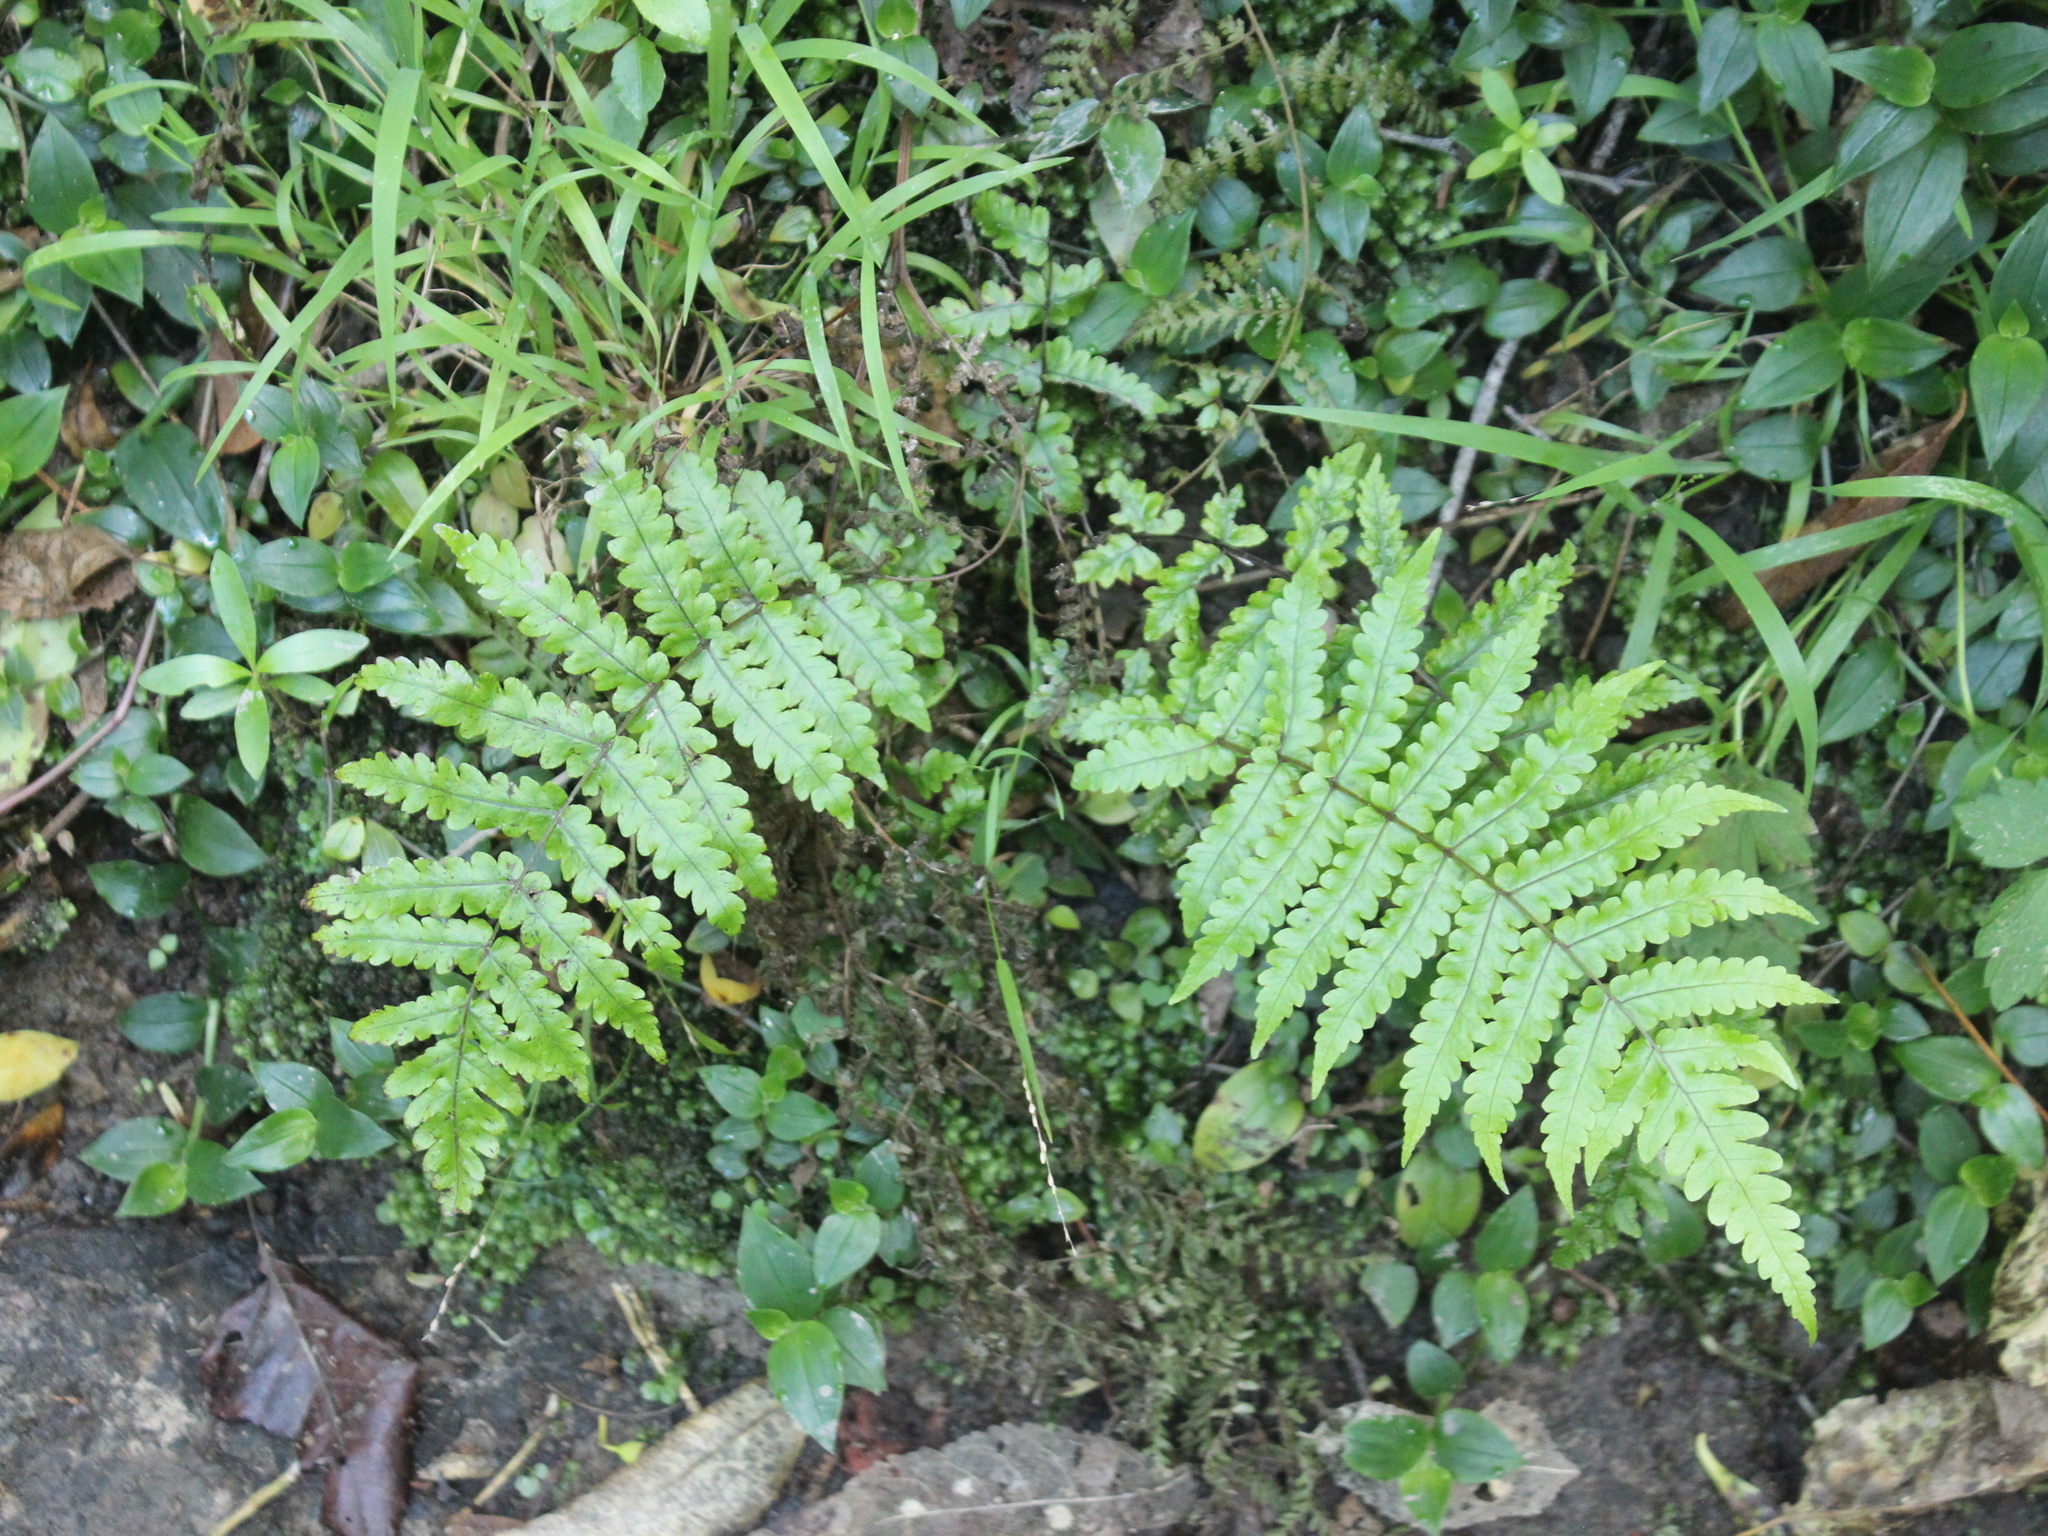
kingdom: Plantae
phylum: Tracheophyta
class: Polypodiopsida
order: Polypodiales
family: Thelypteridaceae
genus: Pakau
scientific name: Pakau pennigera
